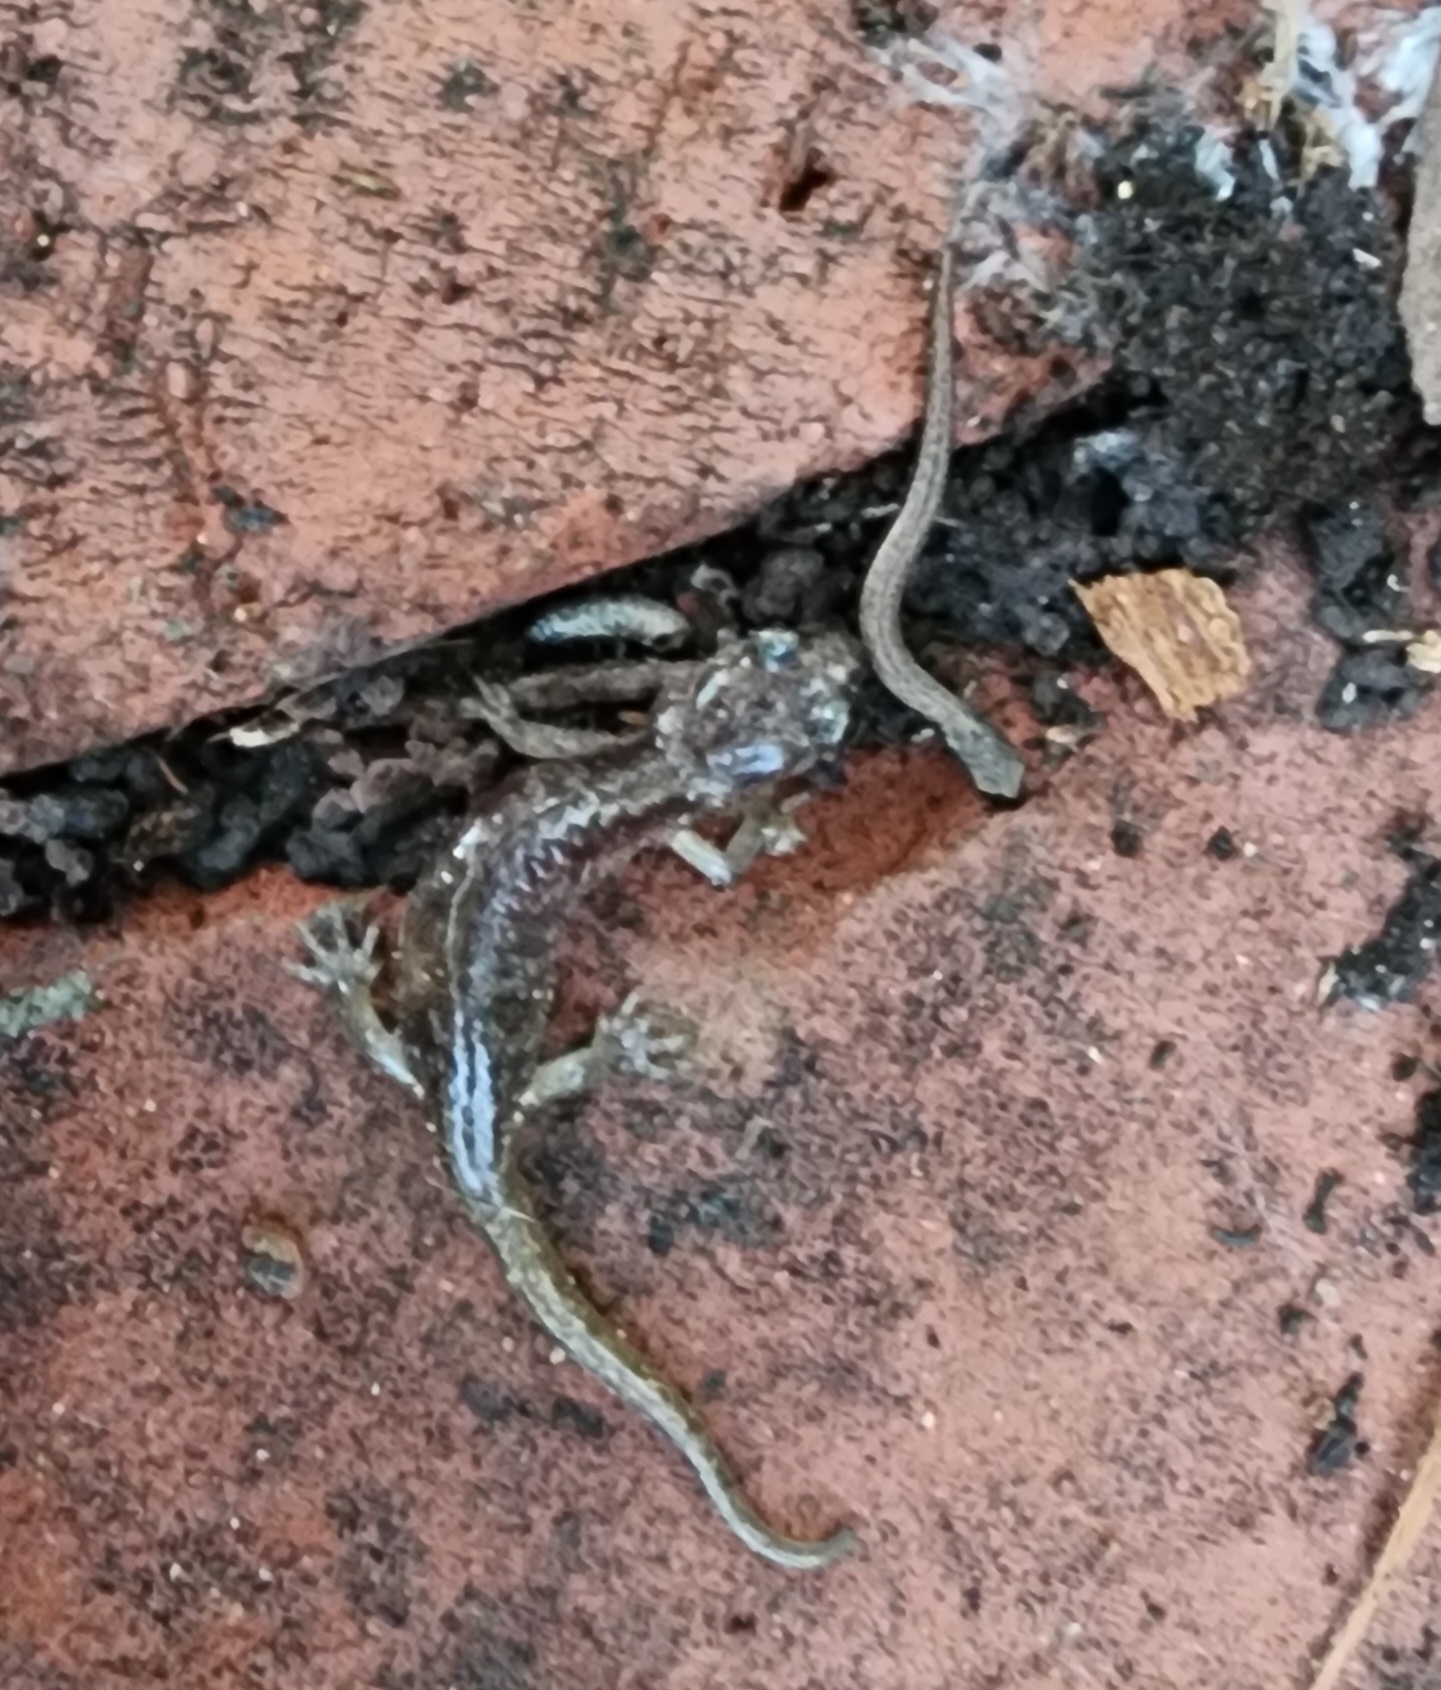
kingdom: Animalia
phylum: Chordata
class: Amphibia
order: Caudata
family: Plethodontidae
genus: Aneides
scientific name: Aneides lugubris
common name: Arboreal salamander
